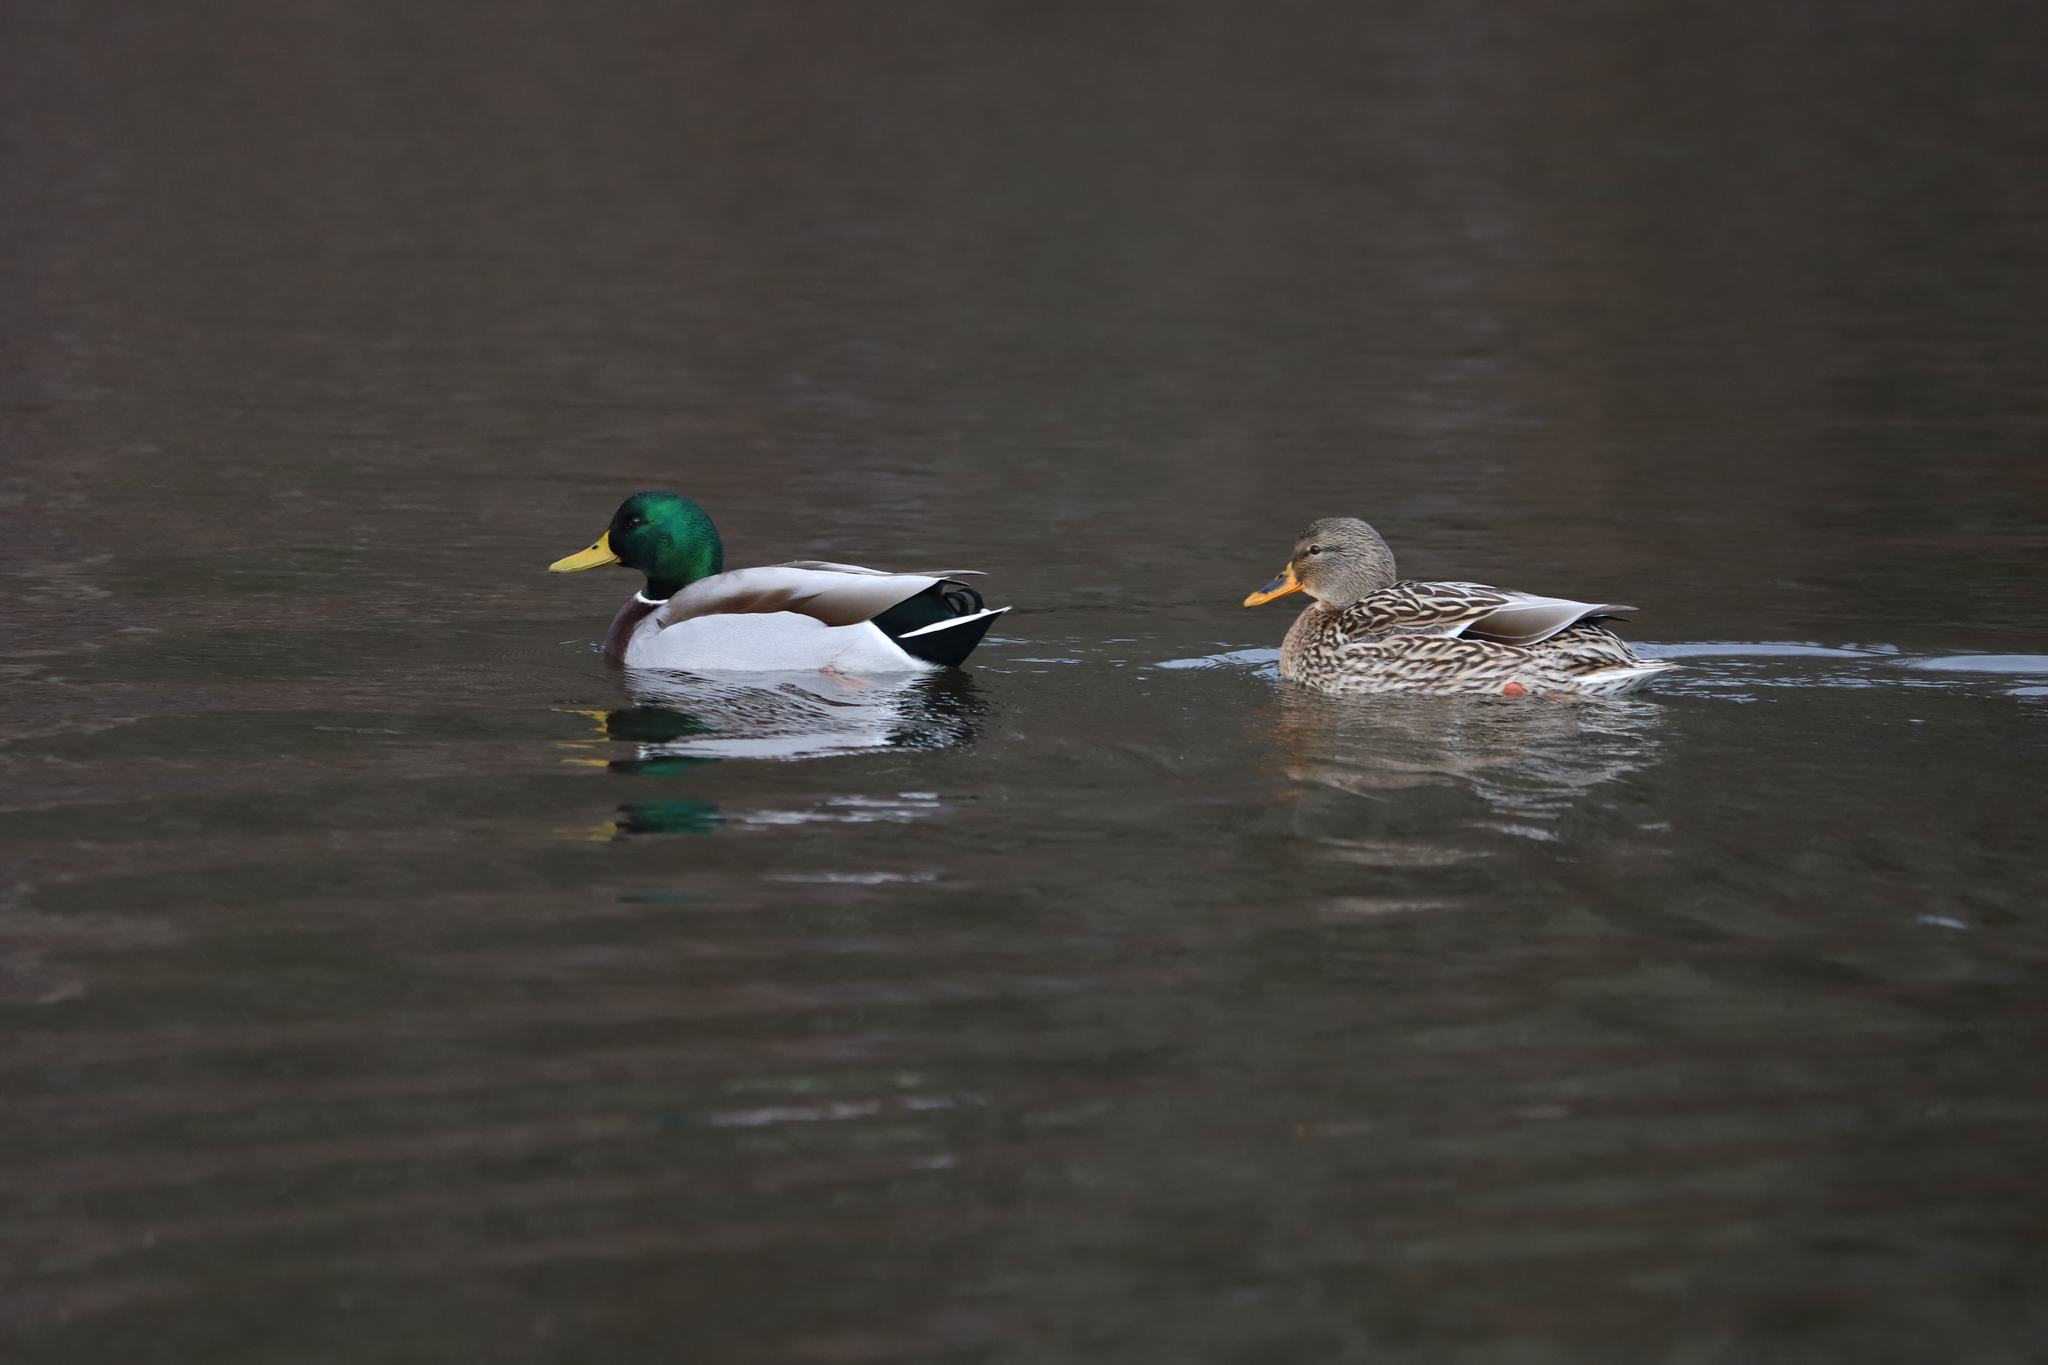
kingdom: Animalia
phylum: Chordata
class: Aves
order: Anseriformes
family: Anatidae
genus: Anas
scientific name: Anas platyrhynchos
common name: Mallard
